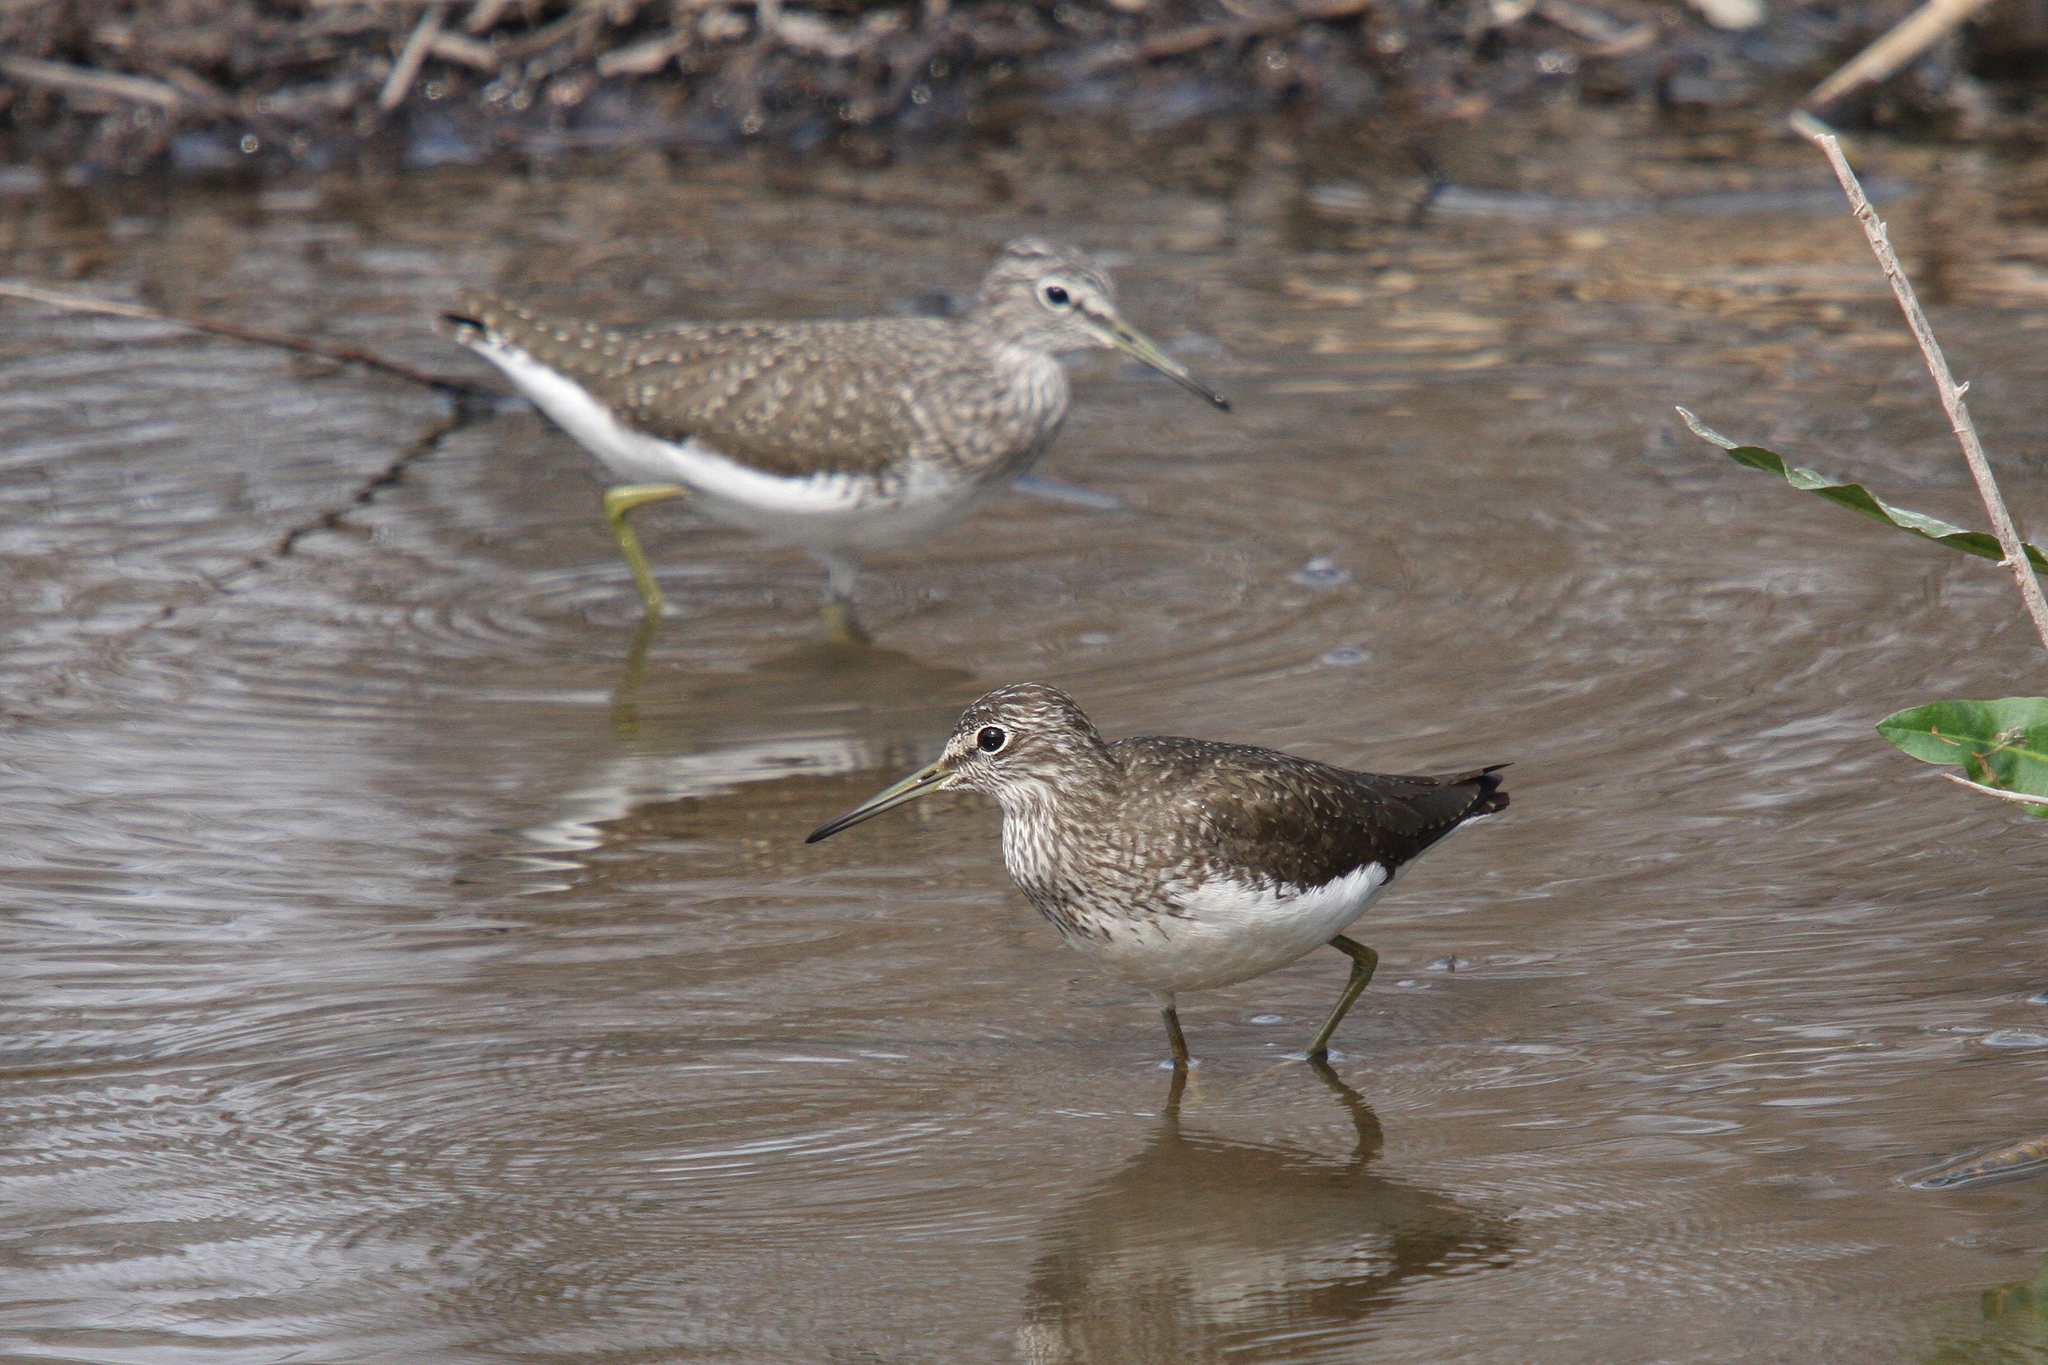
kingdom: Animalia
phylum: Chordata
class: Aves
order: Charadriiformes
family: Scolopacidae
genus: Tringa
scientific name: Tringa ochropus
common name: Green sandpiper
